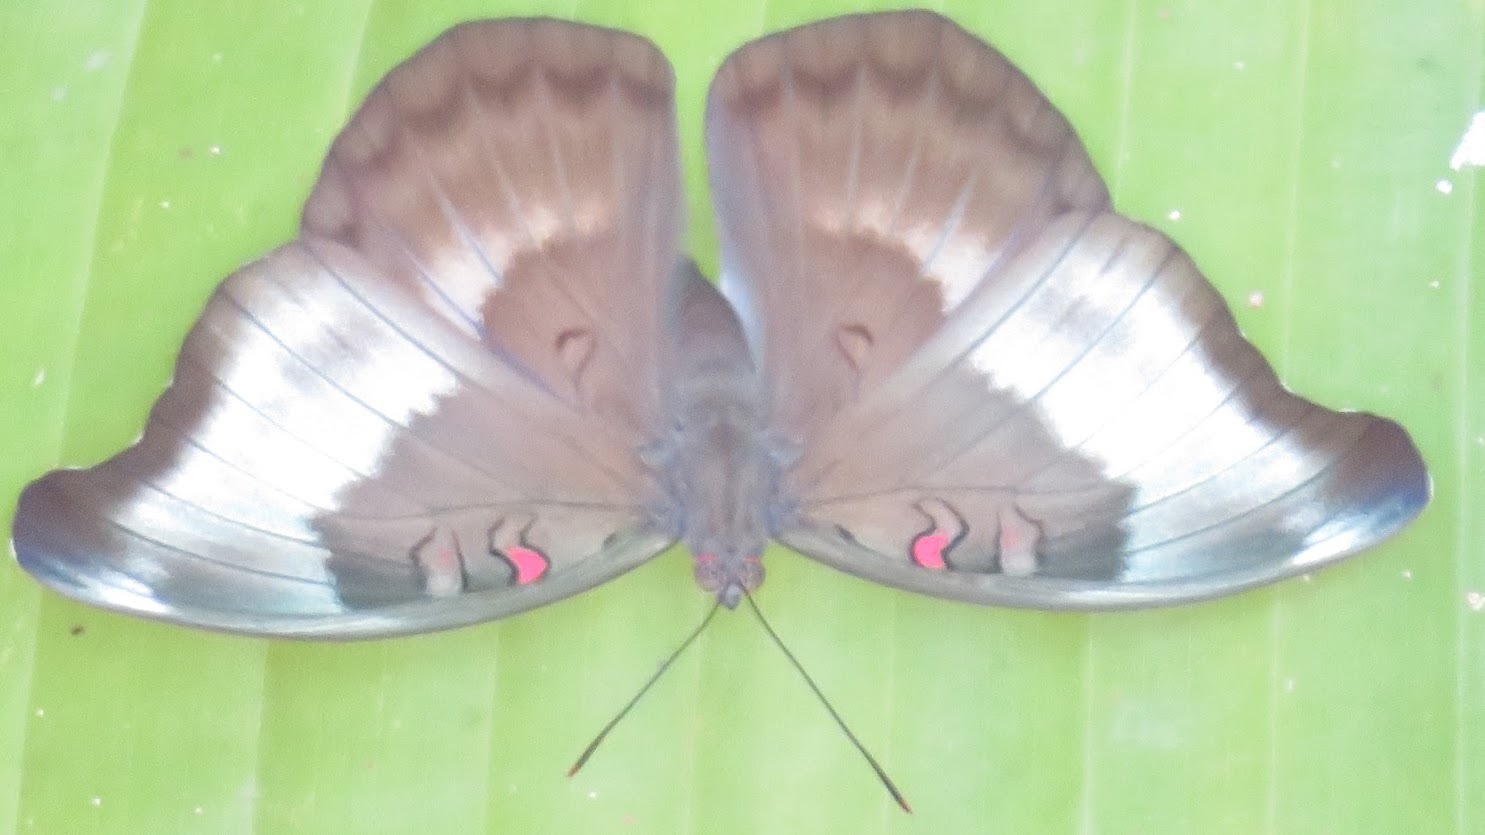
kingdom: Animalia
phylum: Arthropoda
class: Insecta
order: Lepidoptera
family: Nymphalidae
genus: Euthalia
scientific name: Euthalia Dophla evelina
